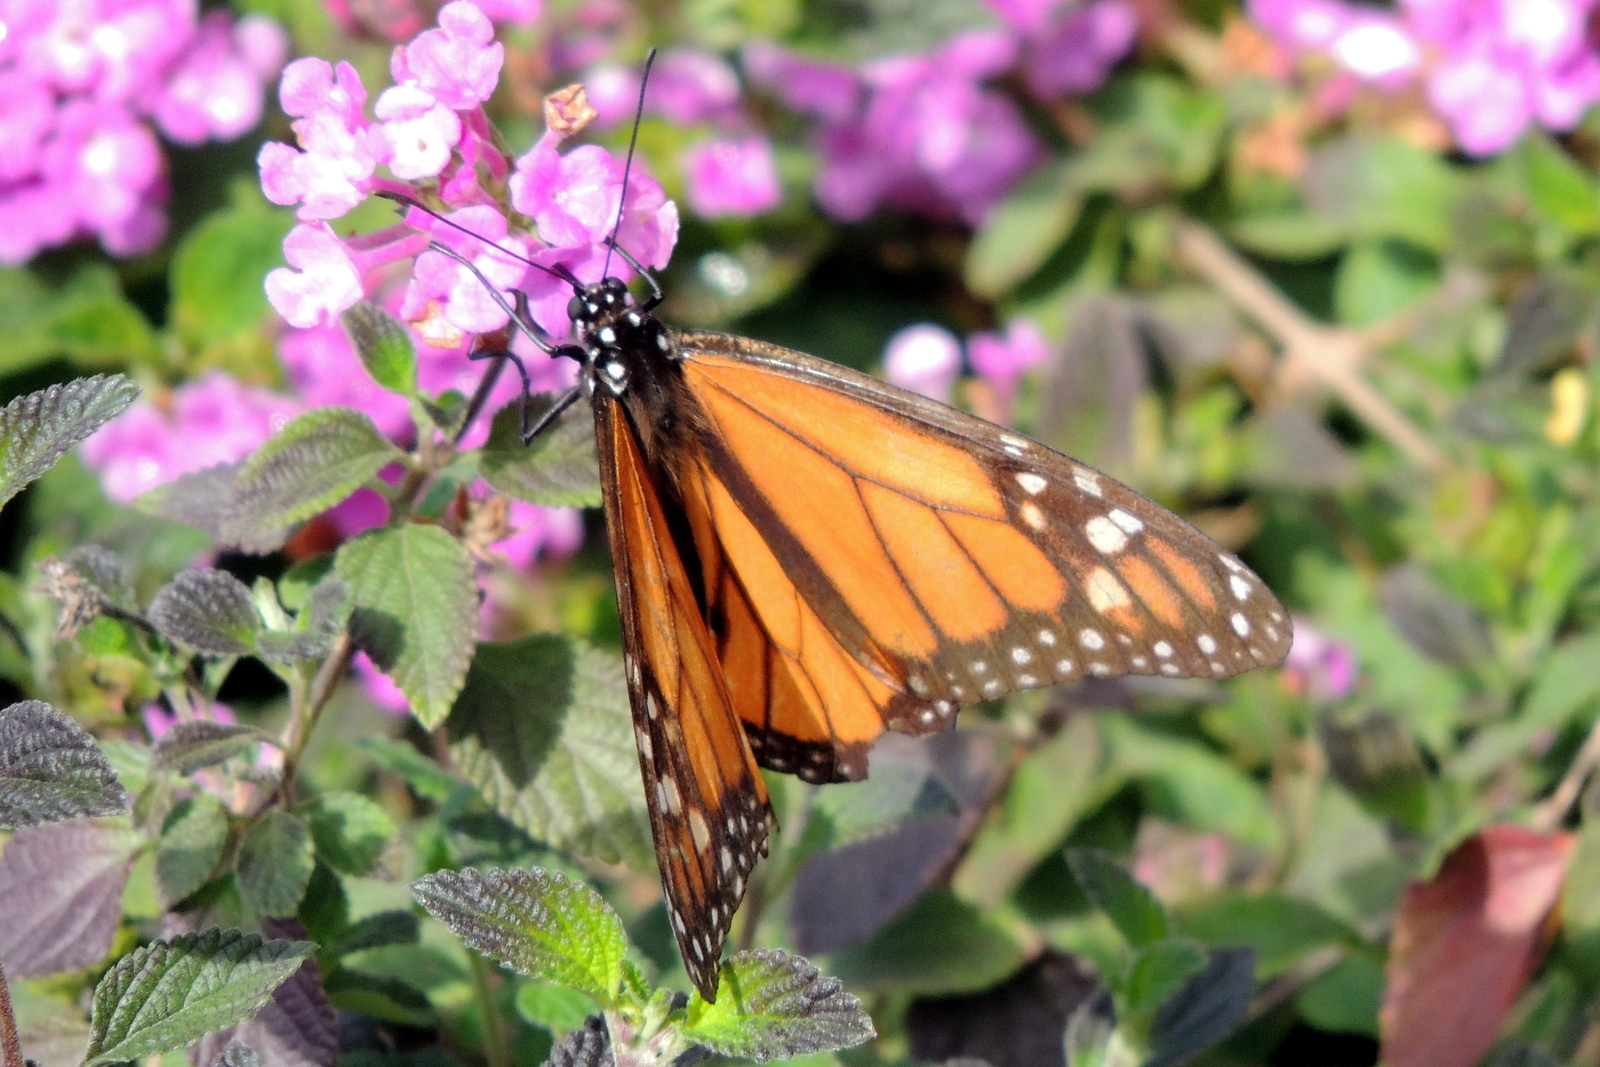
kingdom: Animalia
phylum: Arthropoda
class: Insecta
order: Lepidoptera
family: Nymphalidae
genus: Danaus
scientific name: Danaus plexippus
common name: Monarch
